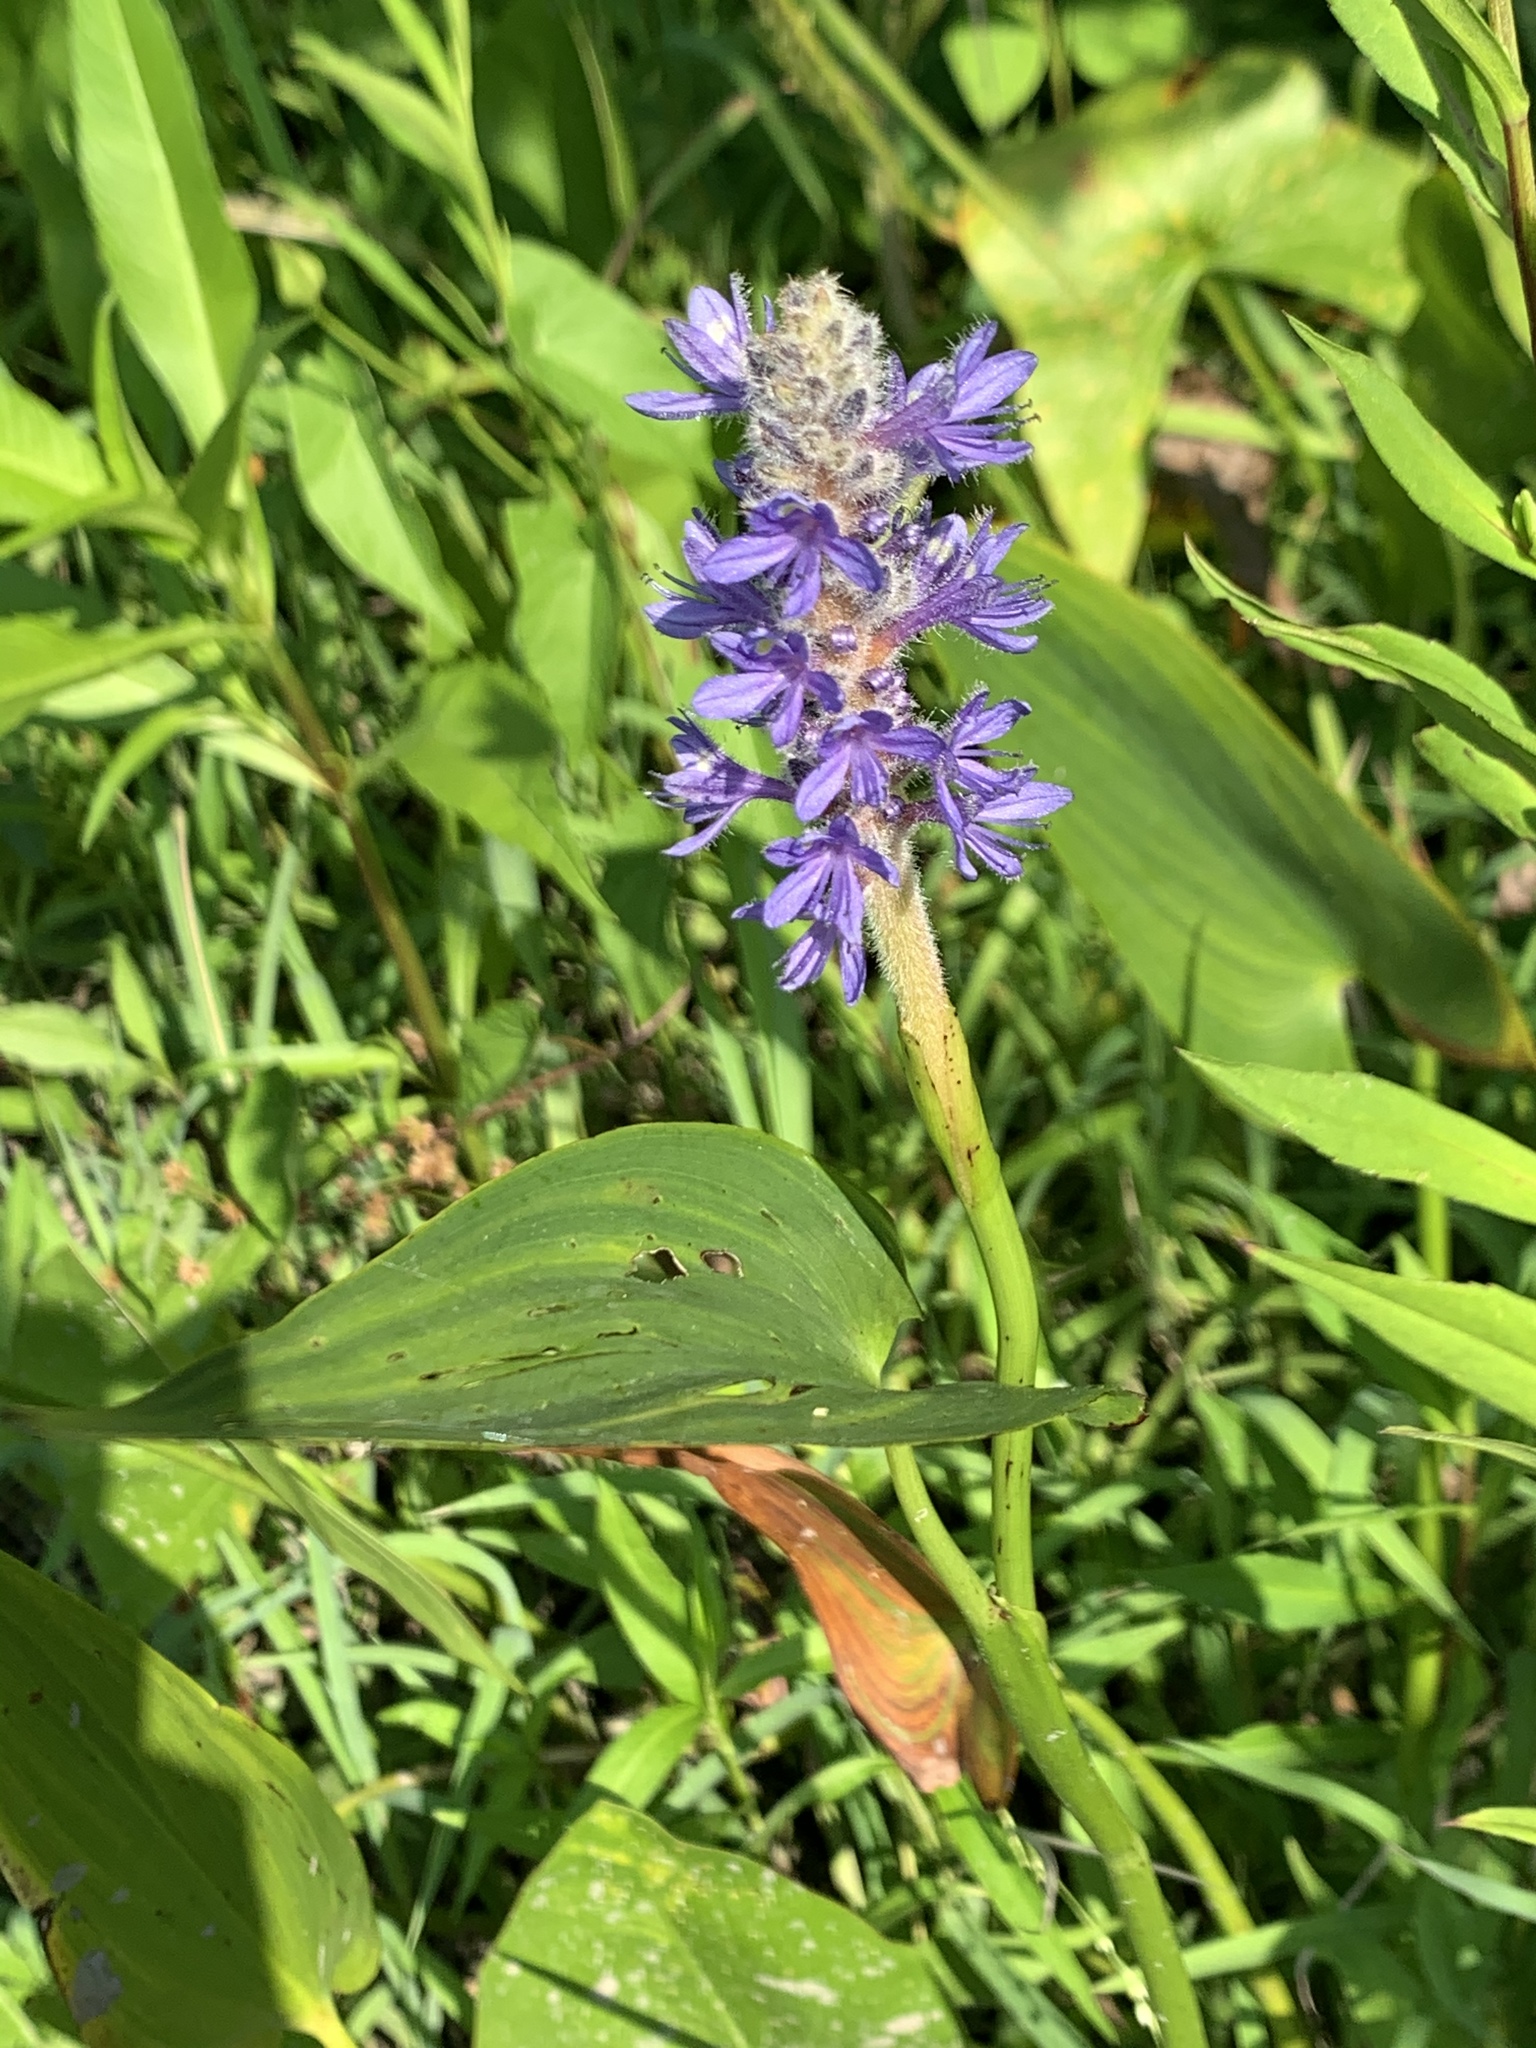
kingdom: Plantae
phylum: Tracheophyta
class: Liliopsida
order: Commelinales
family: Pontederiaceae
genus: Pontederia
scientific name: Pontederia cordata
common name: Pickerelweed
